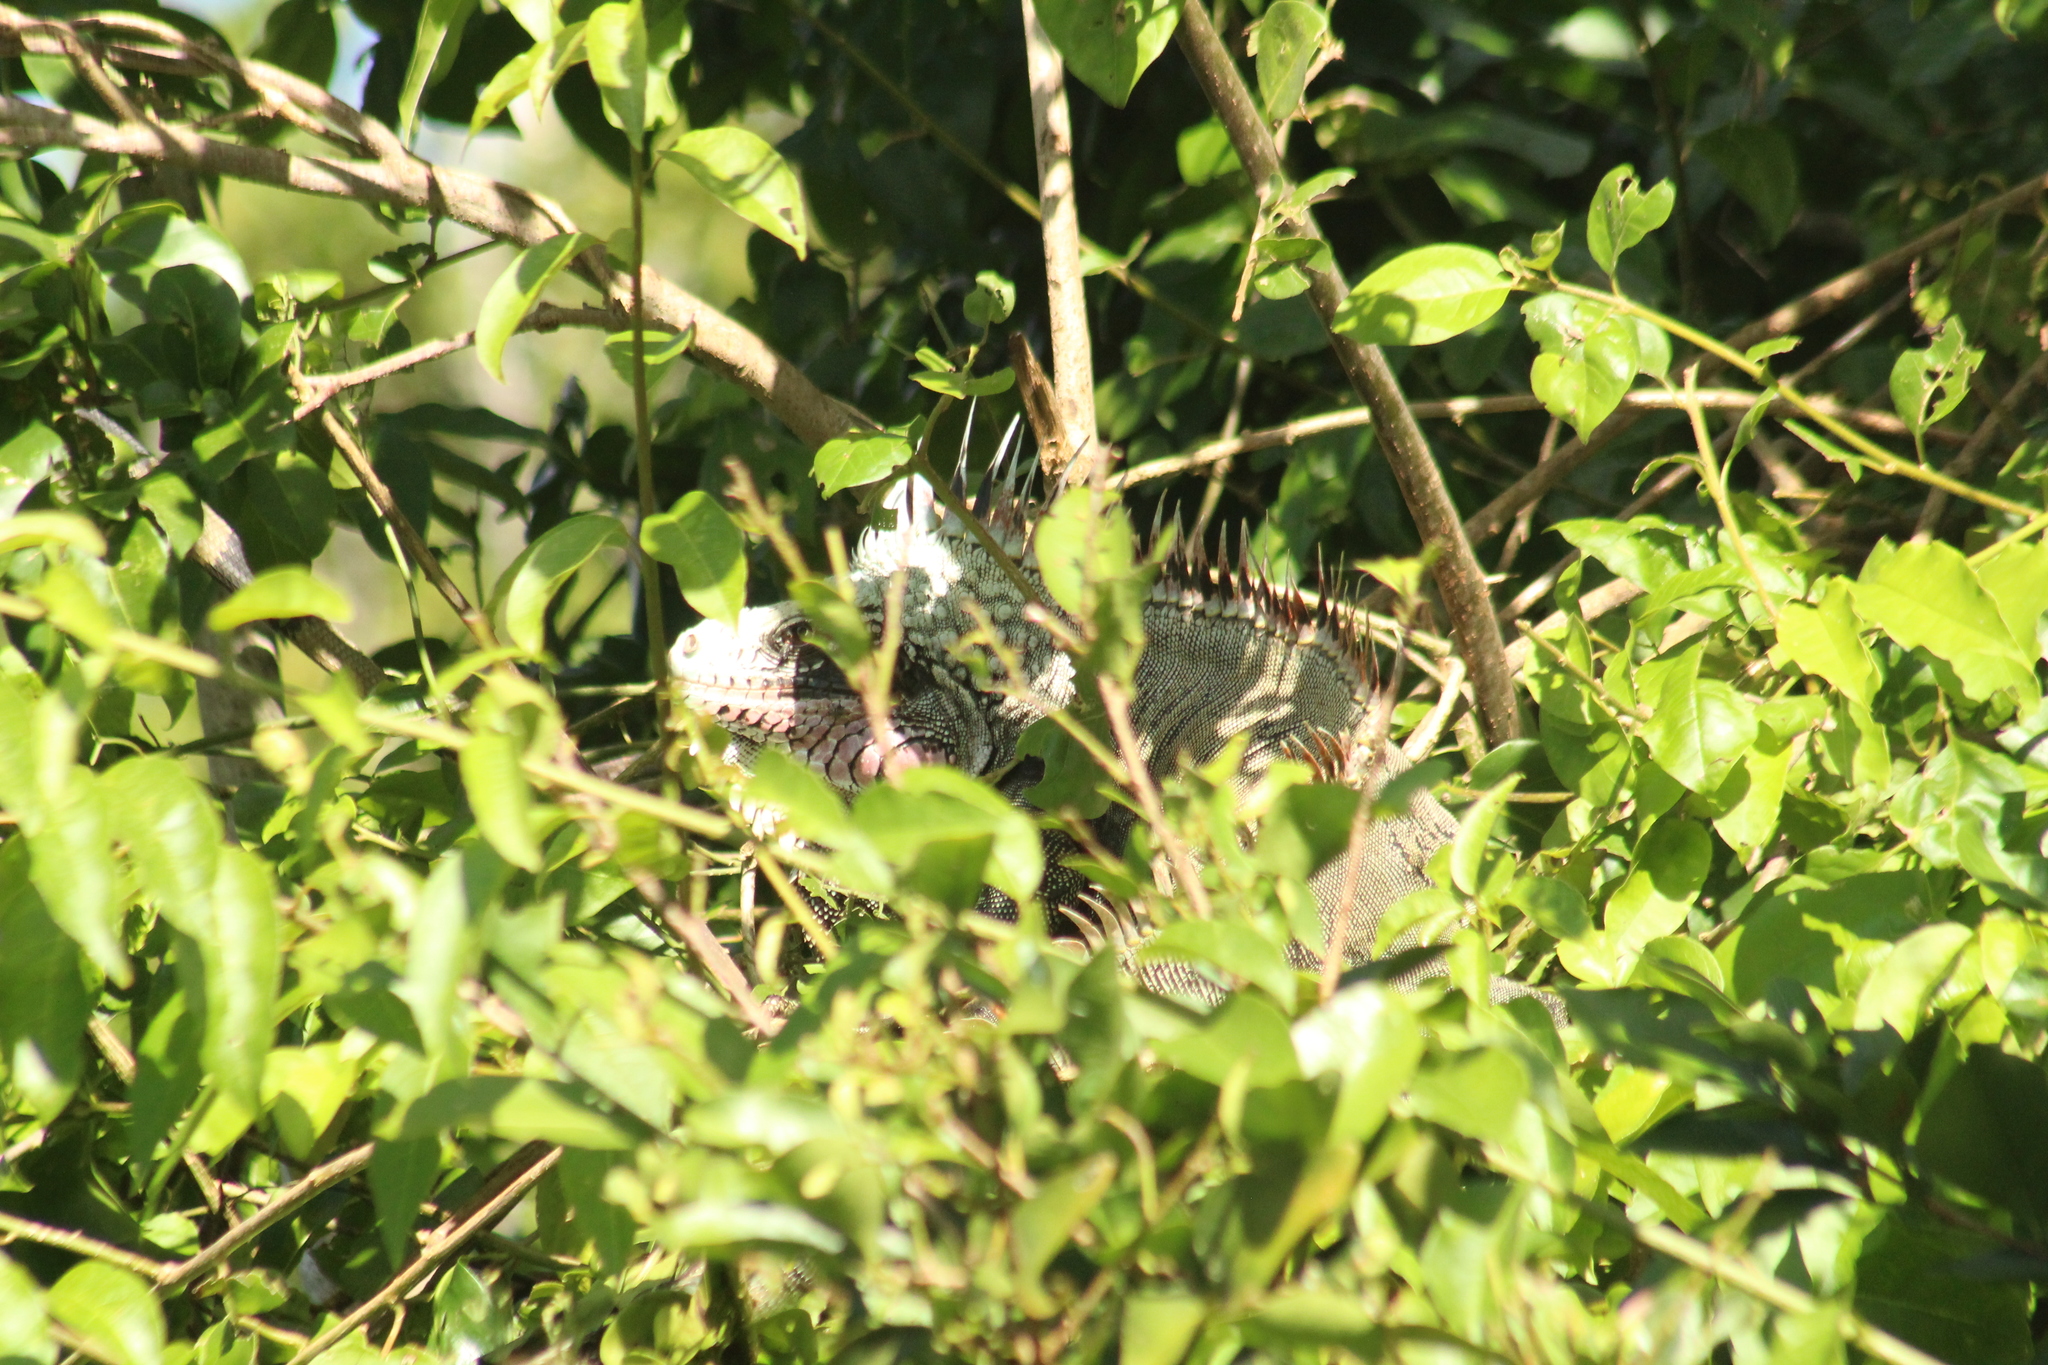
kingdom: Animalia
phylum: Chordata
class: Squamata
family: Iguanidae
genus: Iguana
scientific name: Iguana iguana
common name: Green iguana
